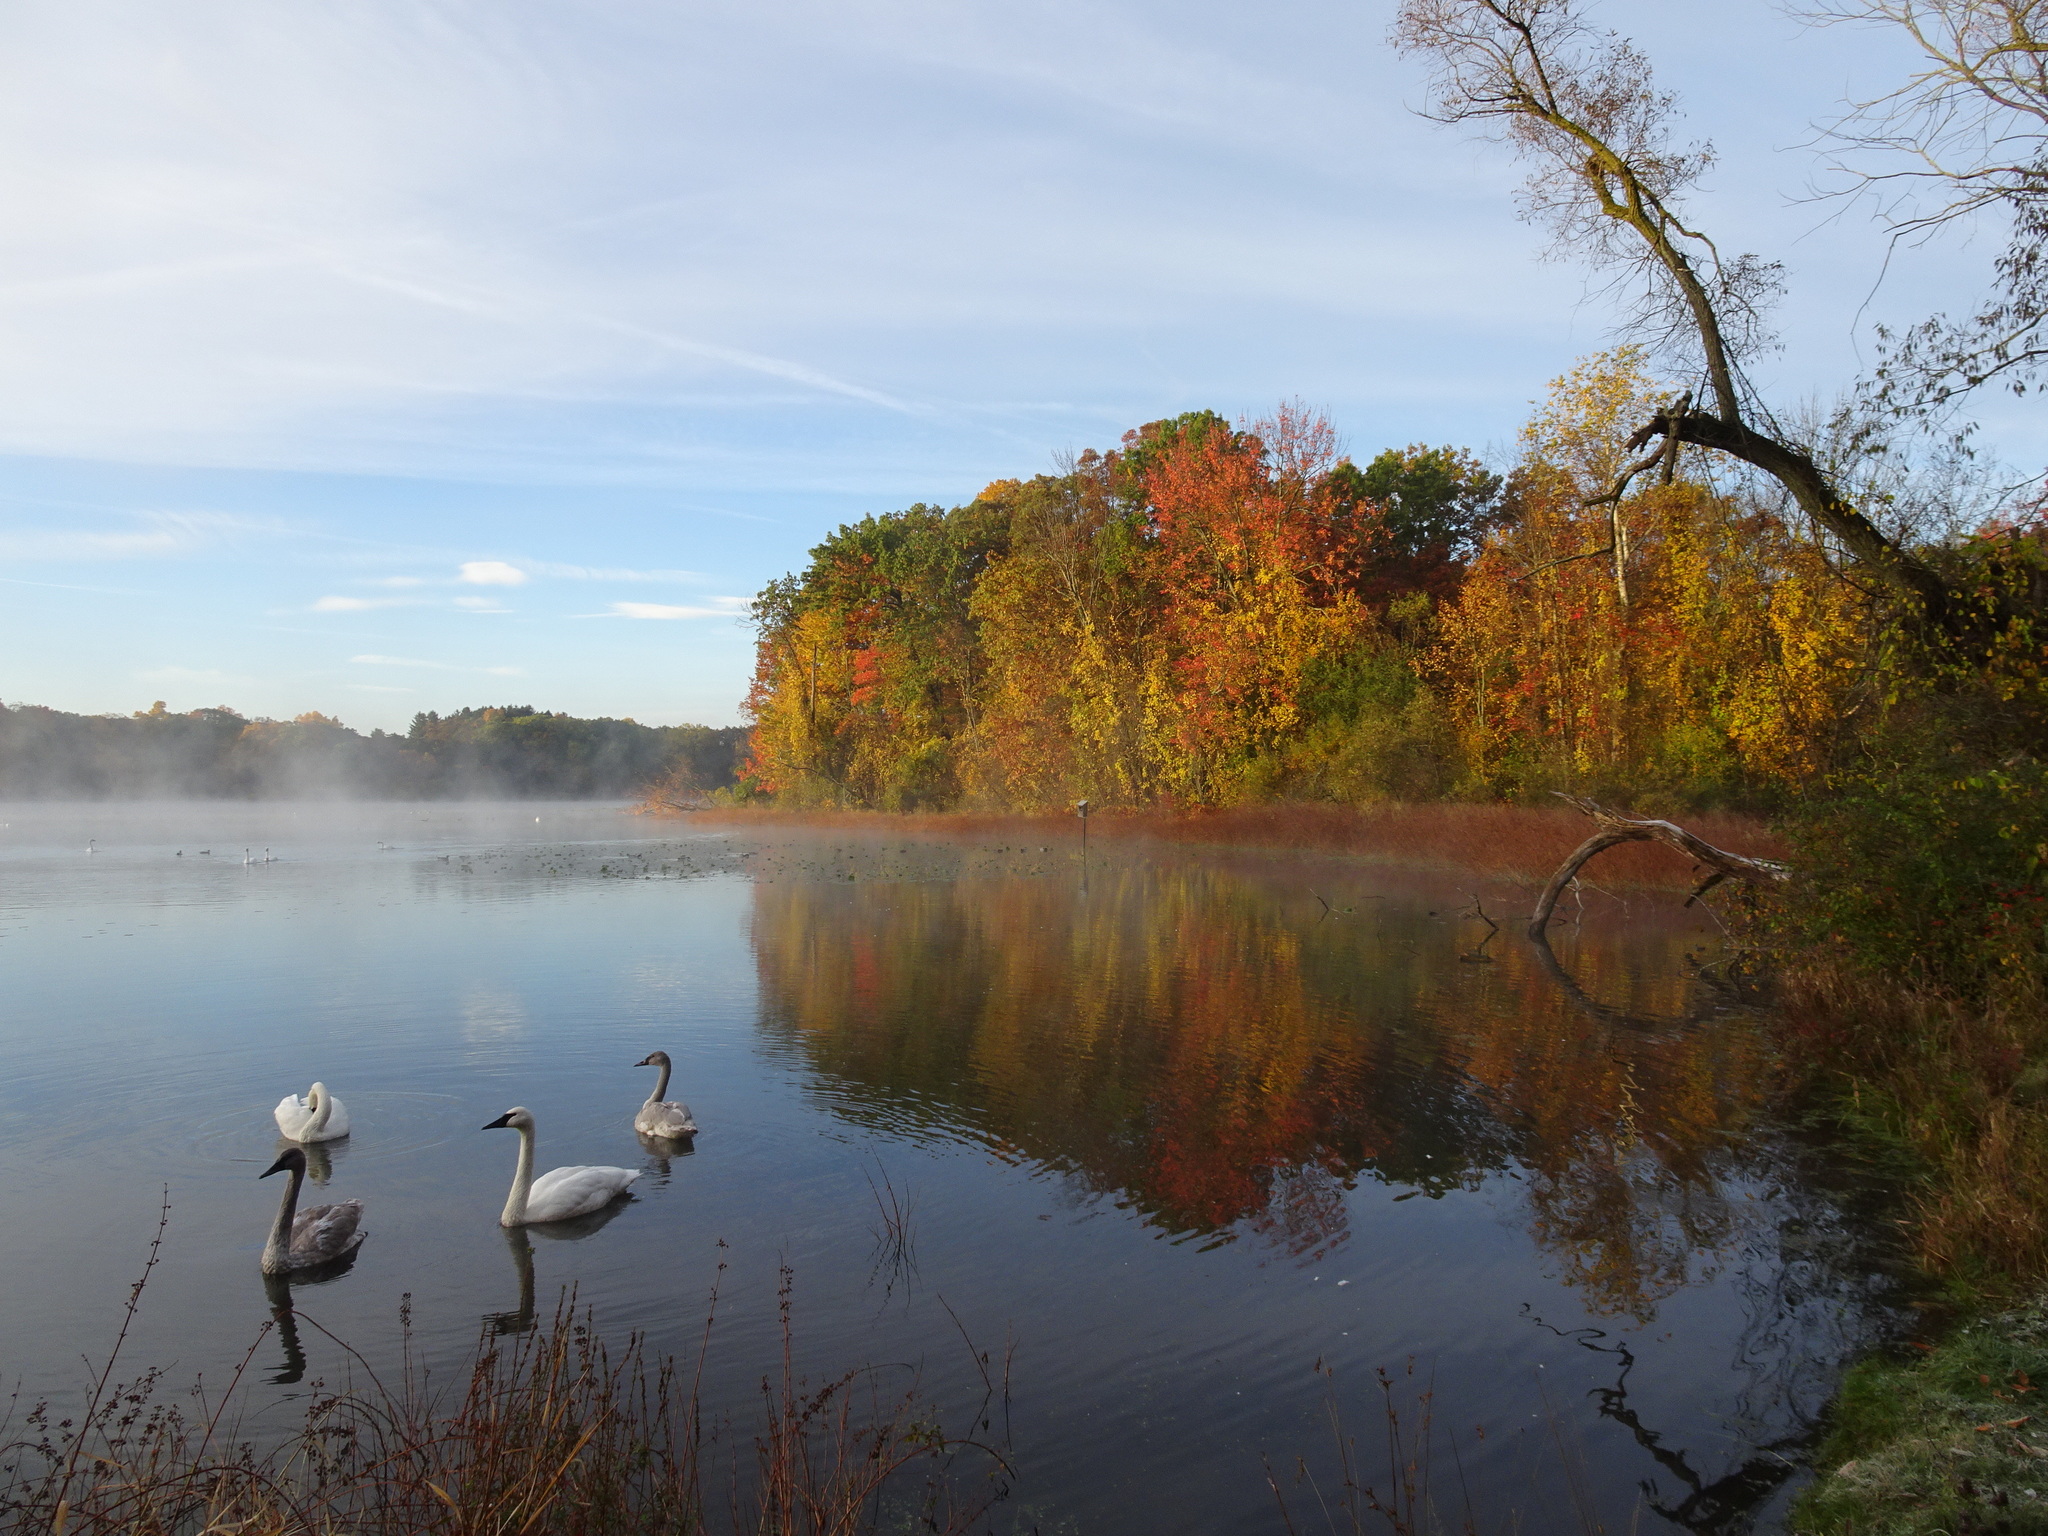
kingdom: Animalia
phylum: Chordata
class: Aves
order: Anseriformes
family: Anatidae
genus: Cygnus
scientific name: Cygnus buccinator
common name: Trumpeter swan
